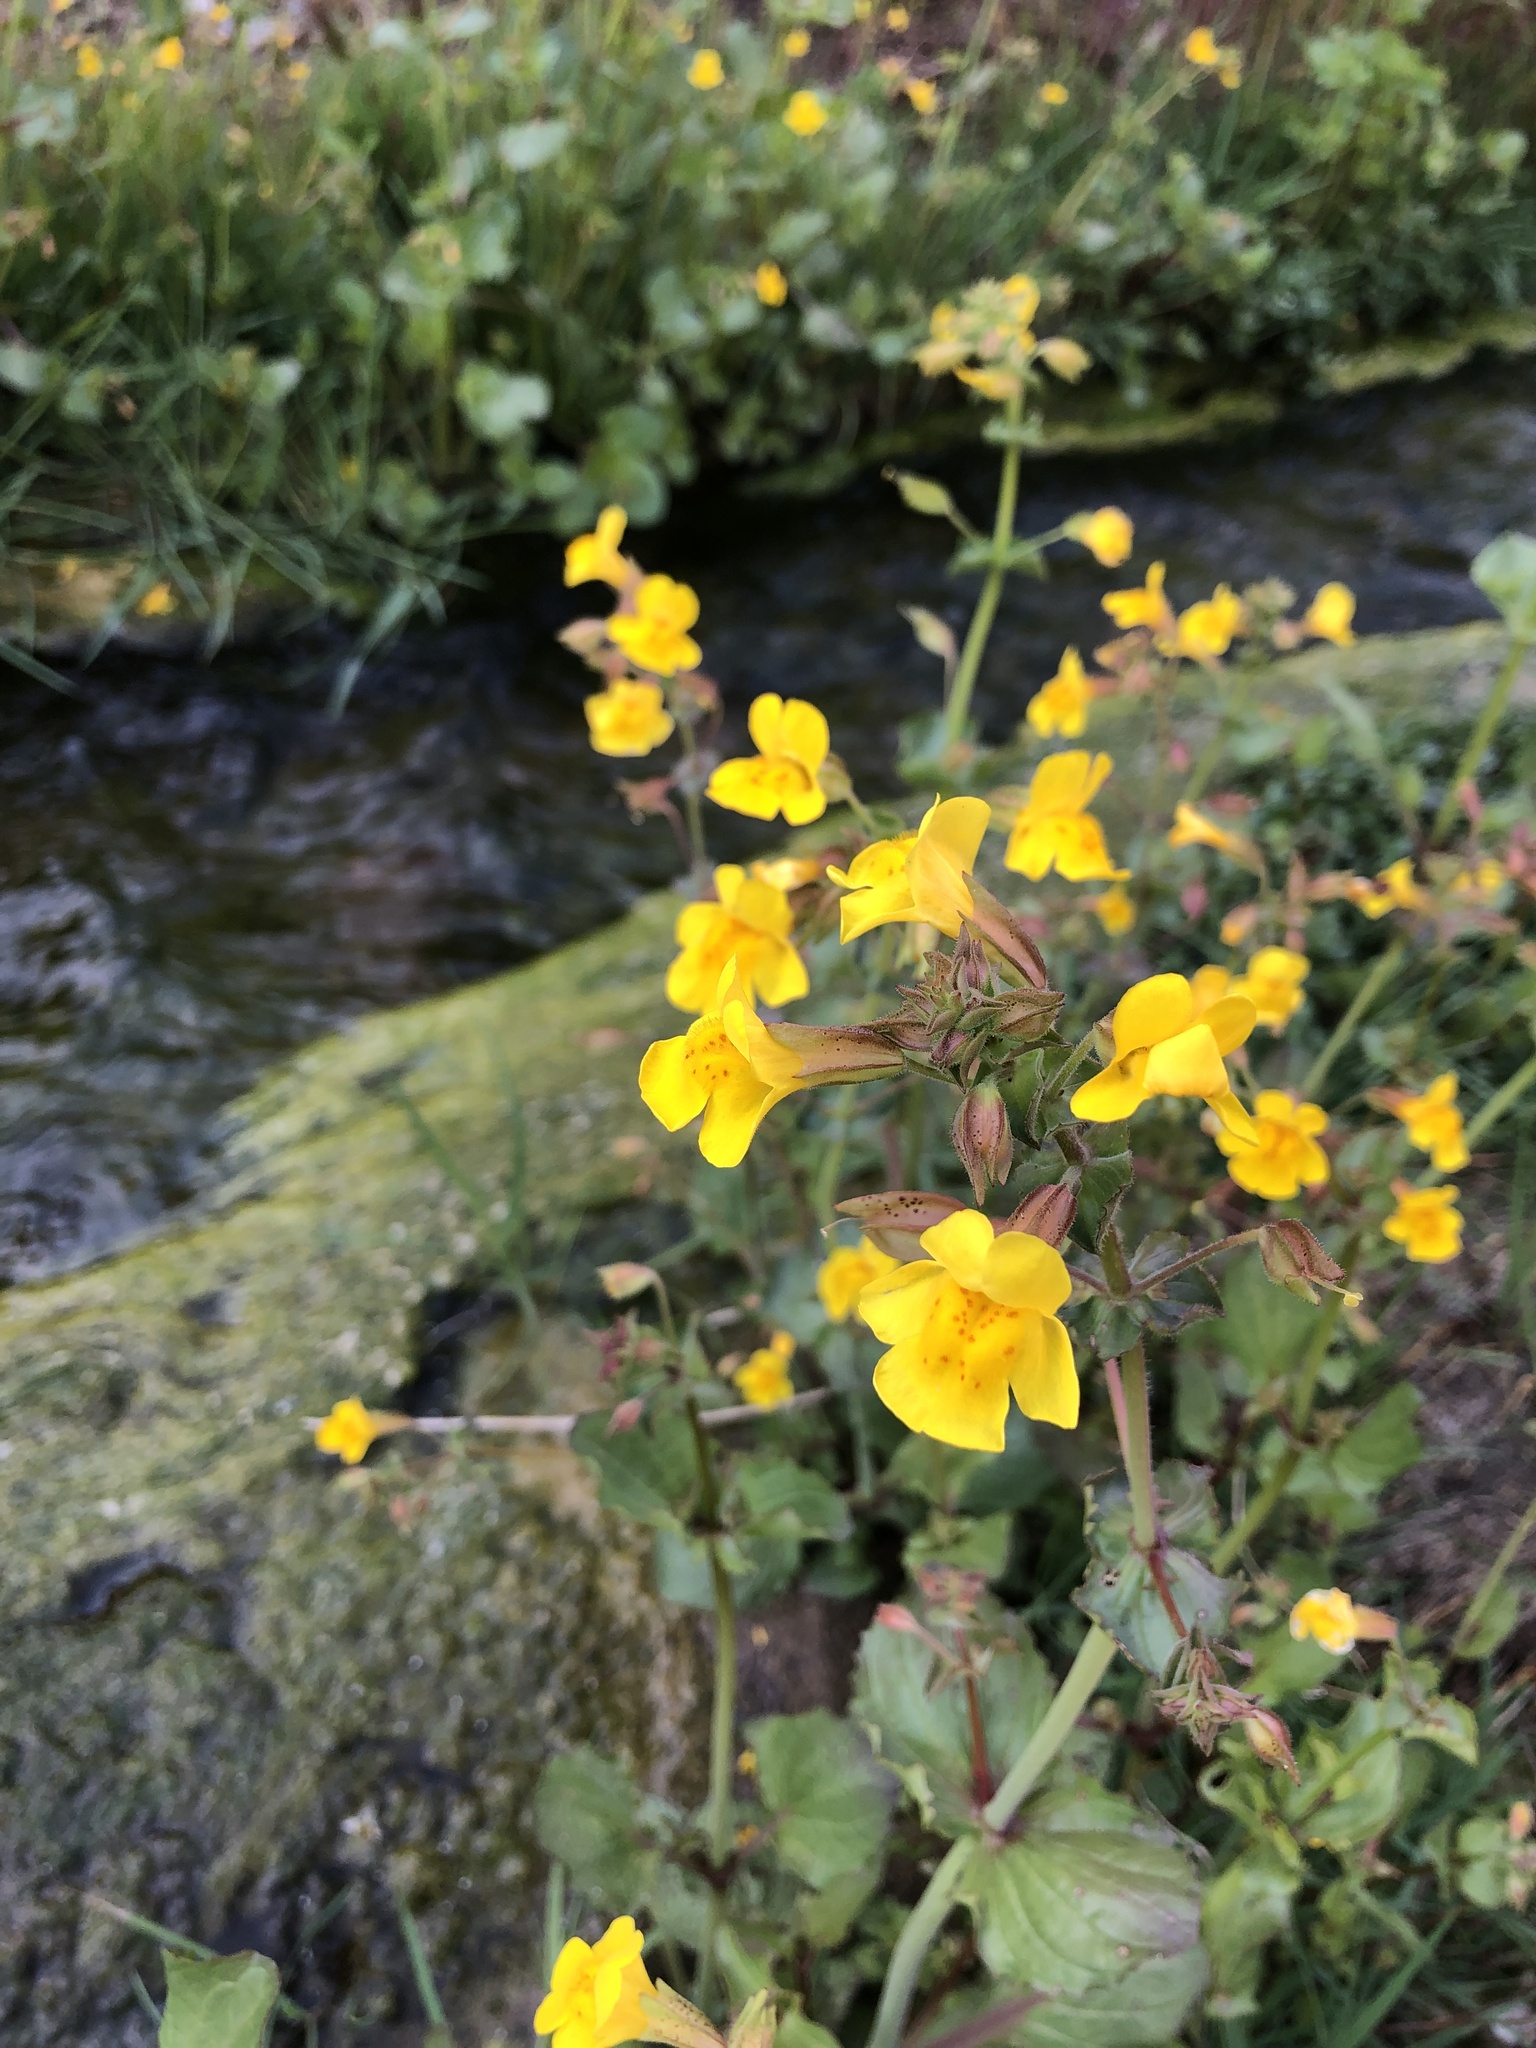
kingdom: Plantae
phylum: Tracheophyta
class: Magnoliopsida
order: Lamiales
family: Phrymaceae
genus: Erythranthe
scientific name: Erythranthe guttata
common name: Monkeyflower
